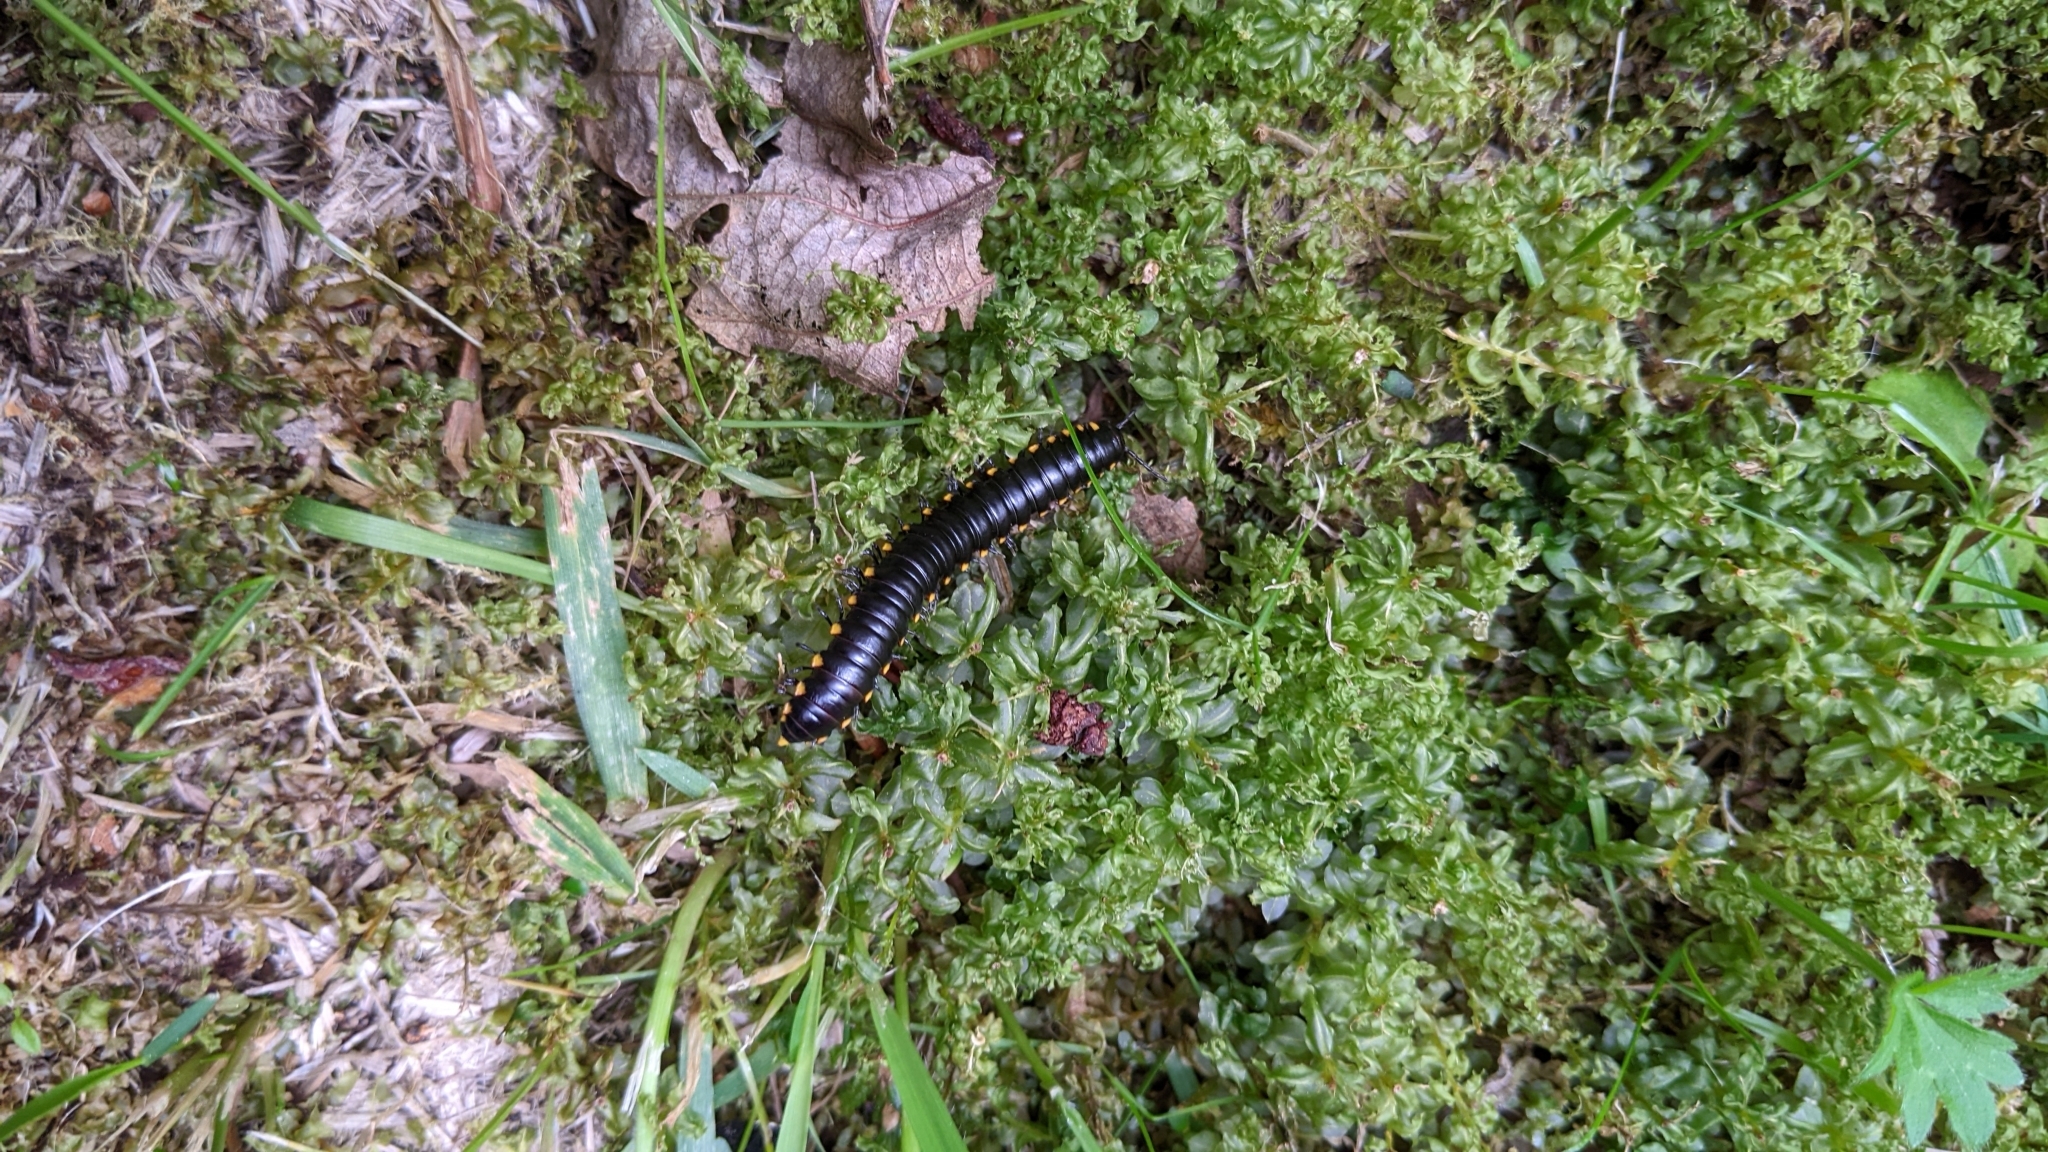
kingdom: Animalia
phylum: Arthropoda
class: Diplopoda
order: Polydesmida
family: Xystodesmidae
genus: Harpaphe
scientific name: Harpaphe haydeniana
